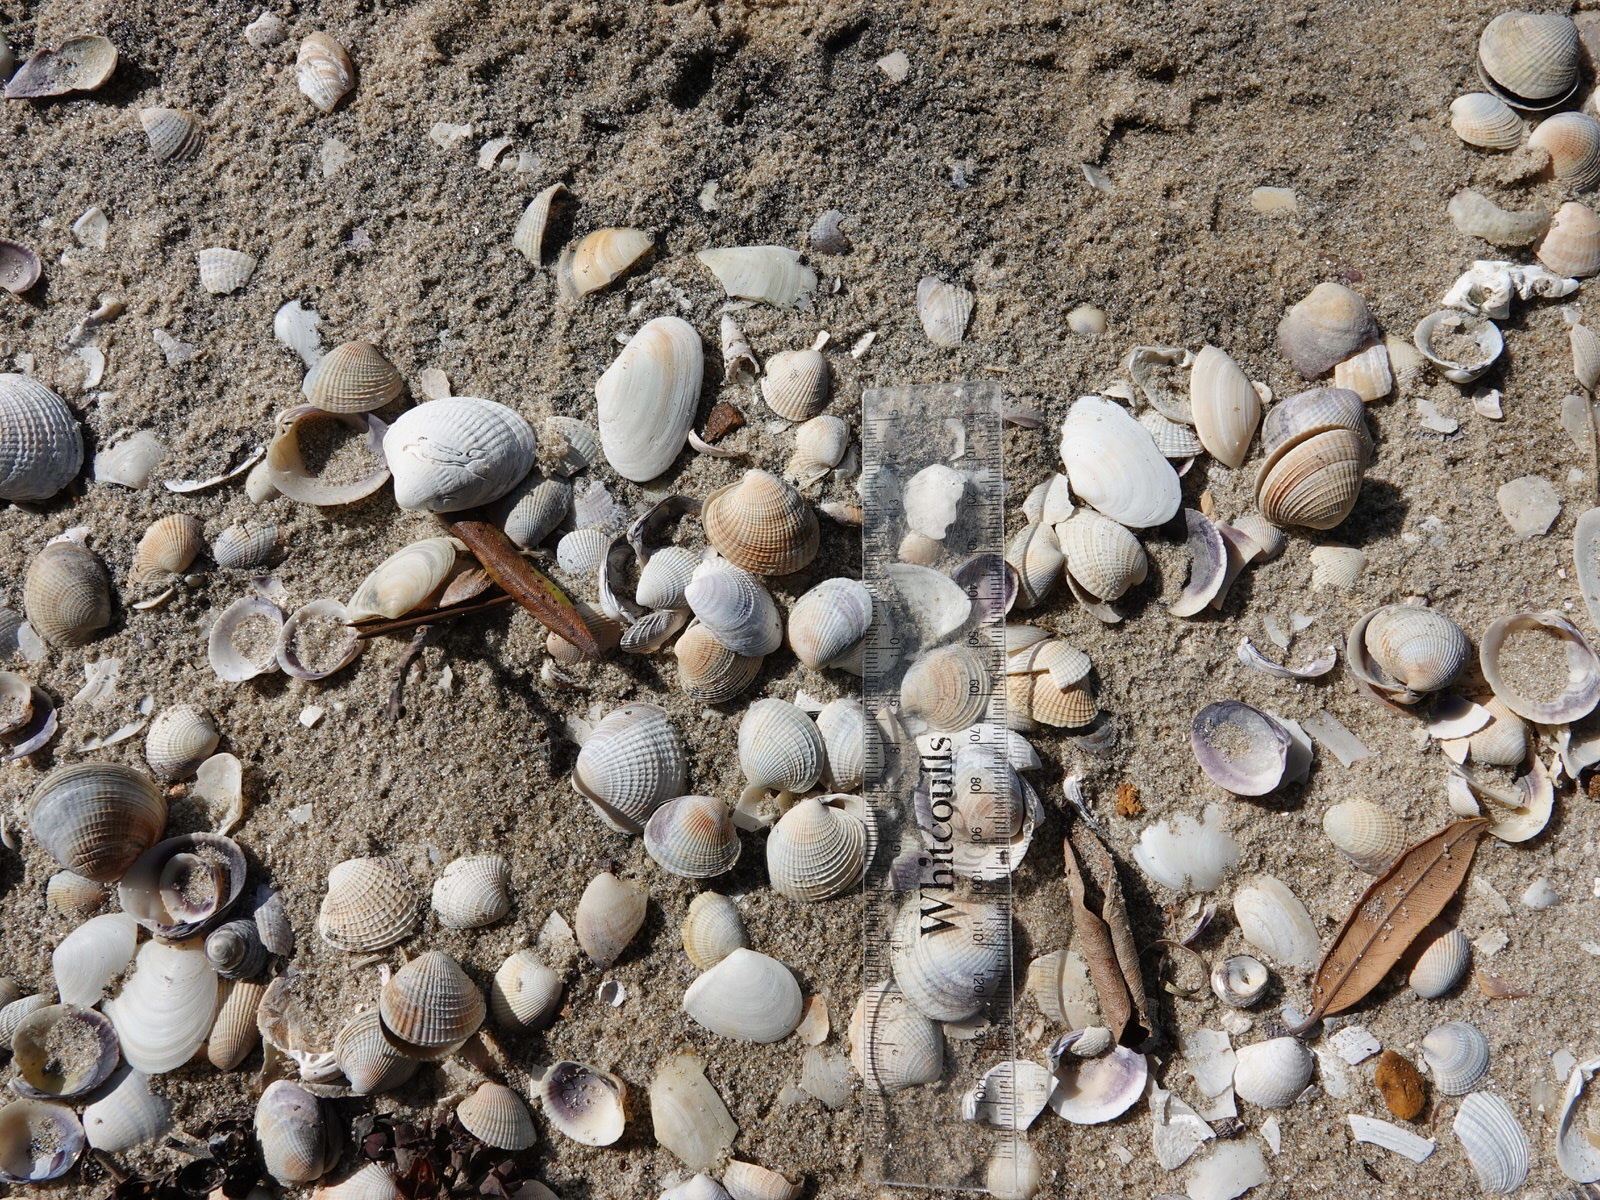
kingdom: Animalia
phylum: Mollusca
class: Bivalvia
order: Venerida
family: Veneridae
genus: Austrovenus
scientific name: Austrovenus stutchburyi
